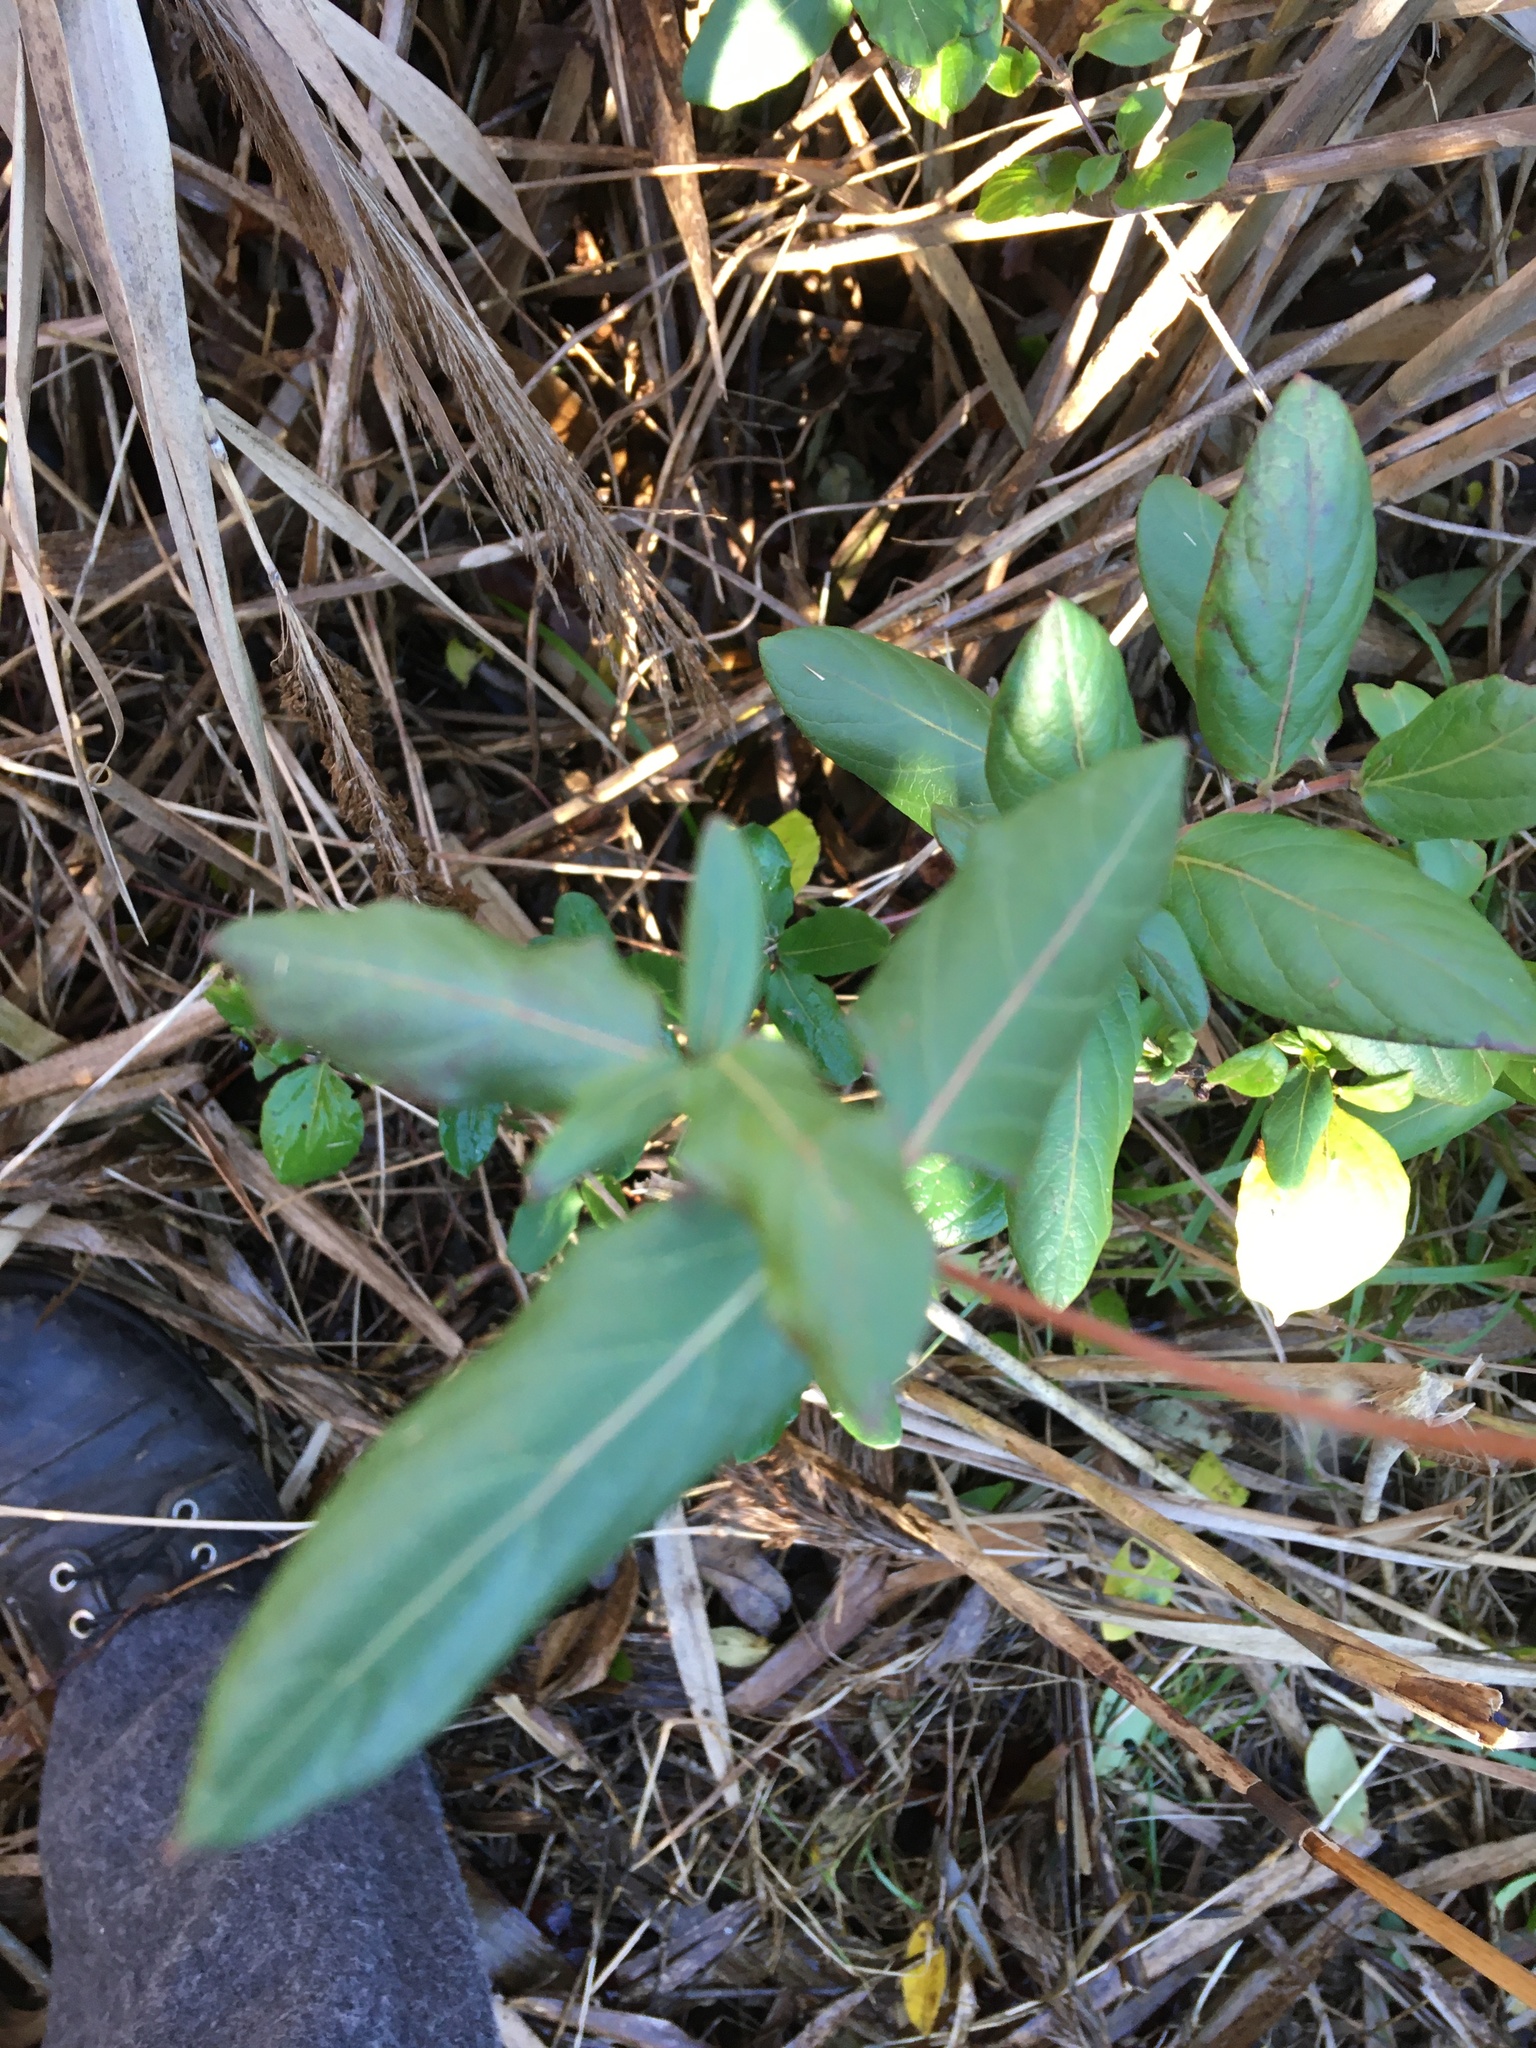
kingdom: Plantae
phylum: Tracheophyta
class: Magnoliopsida
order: Dipsacales
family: Caprifoliaceae
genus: Lonicera
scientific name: Lonicera japonica
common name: Japanese honeysuckle
